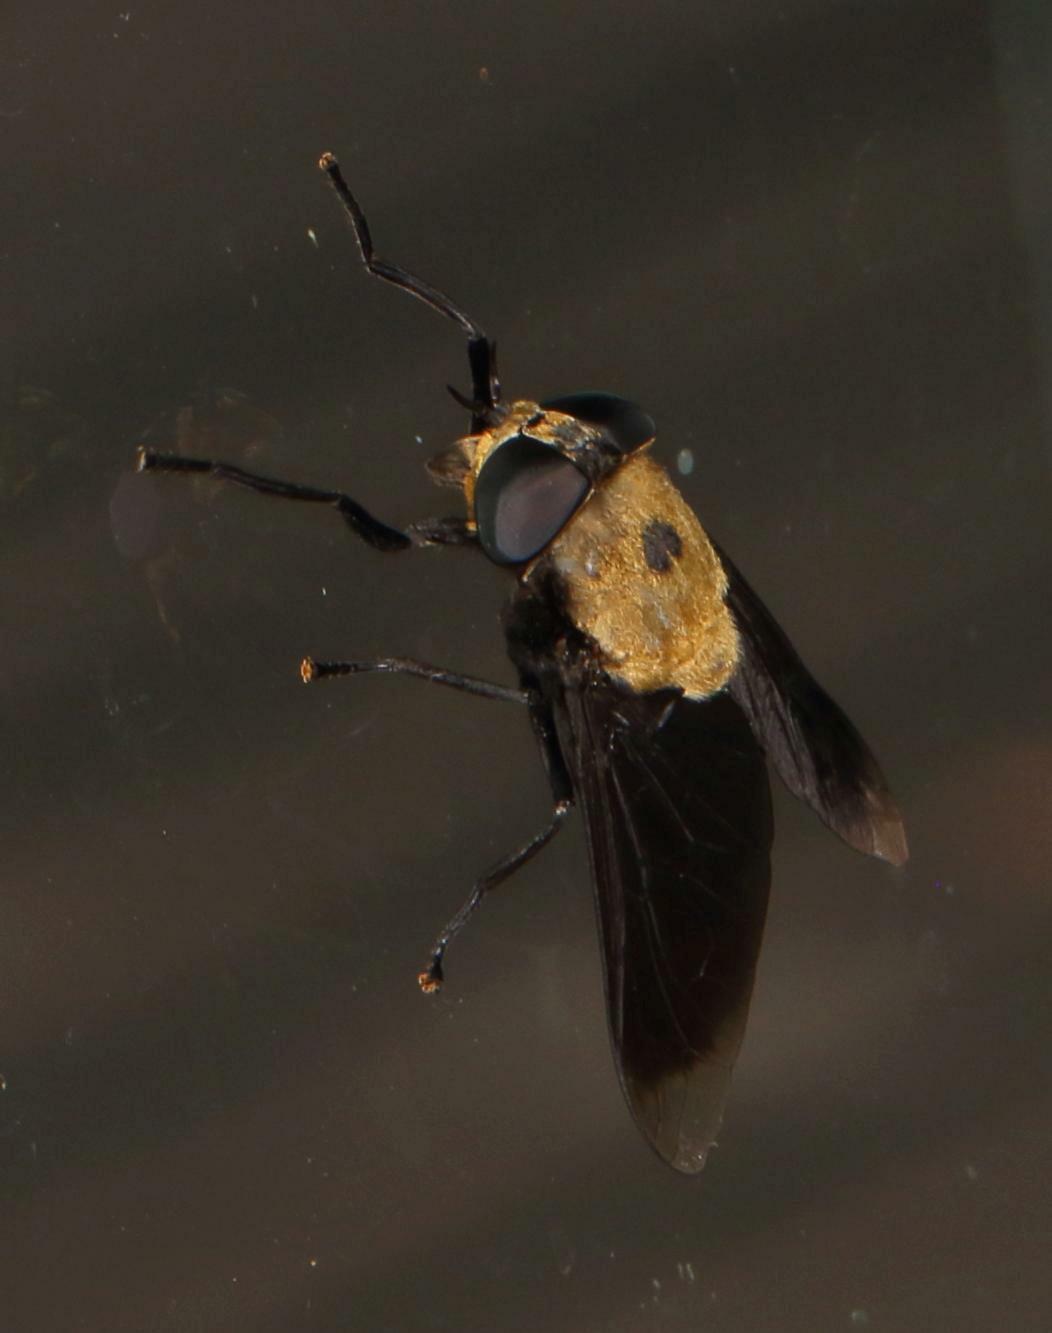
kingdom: Animalia
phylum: Arthropoda
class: Insecta
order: Diptera
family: Tabanidae
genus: Tabanus
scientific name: Tabanus biguttatus
